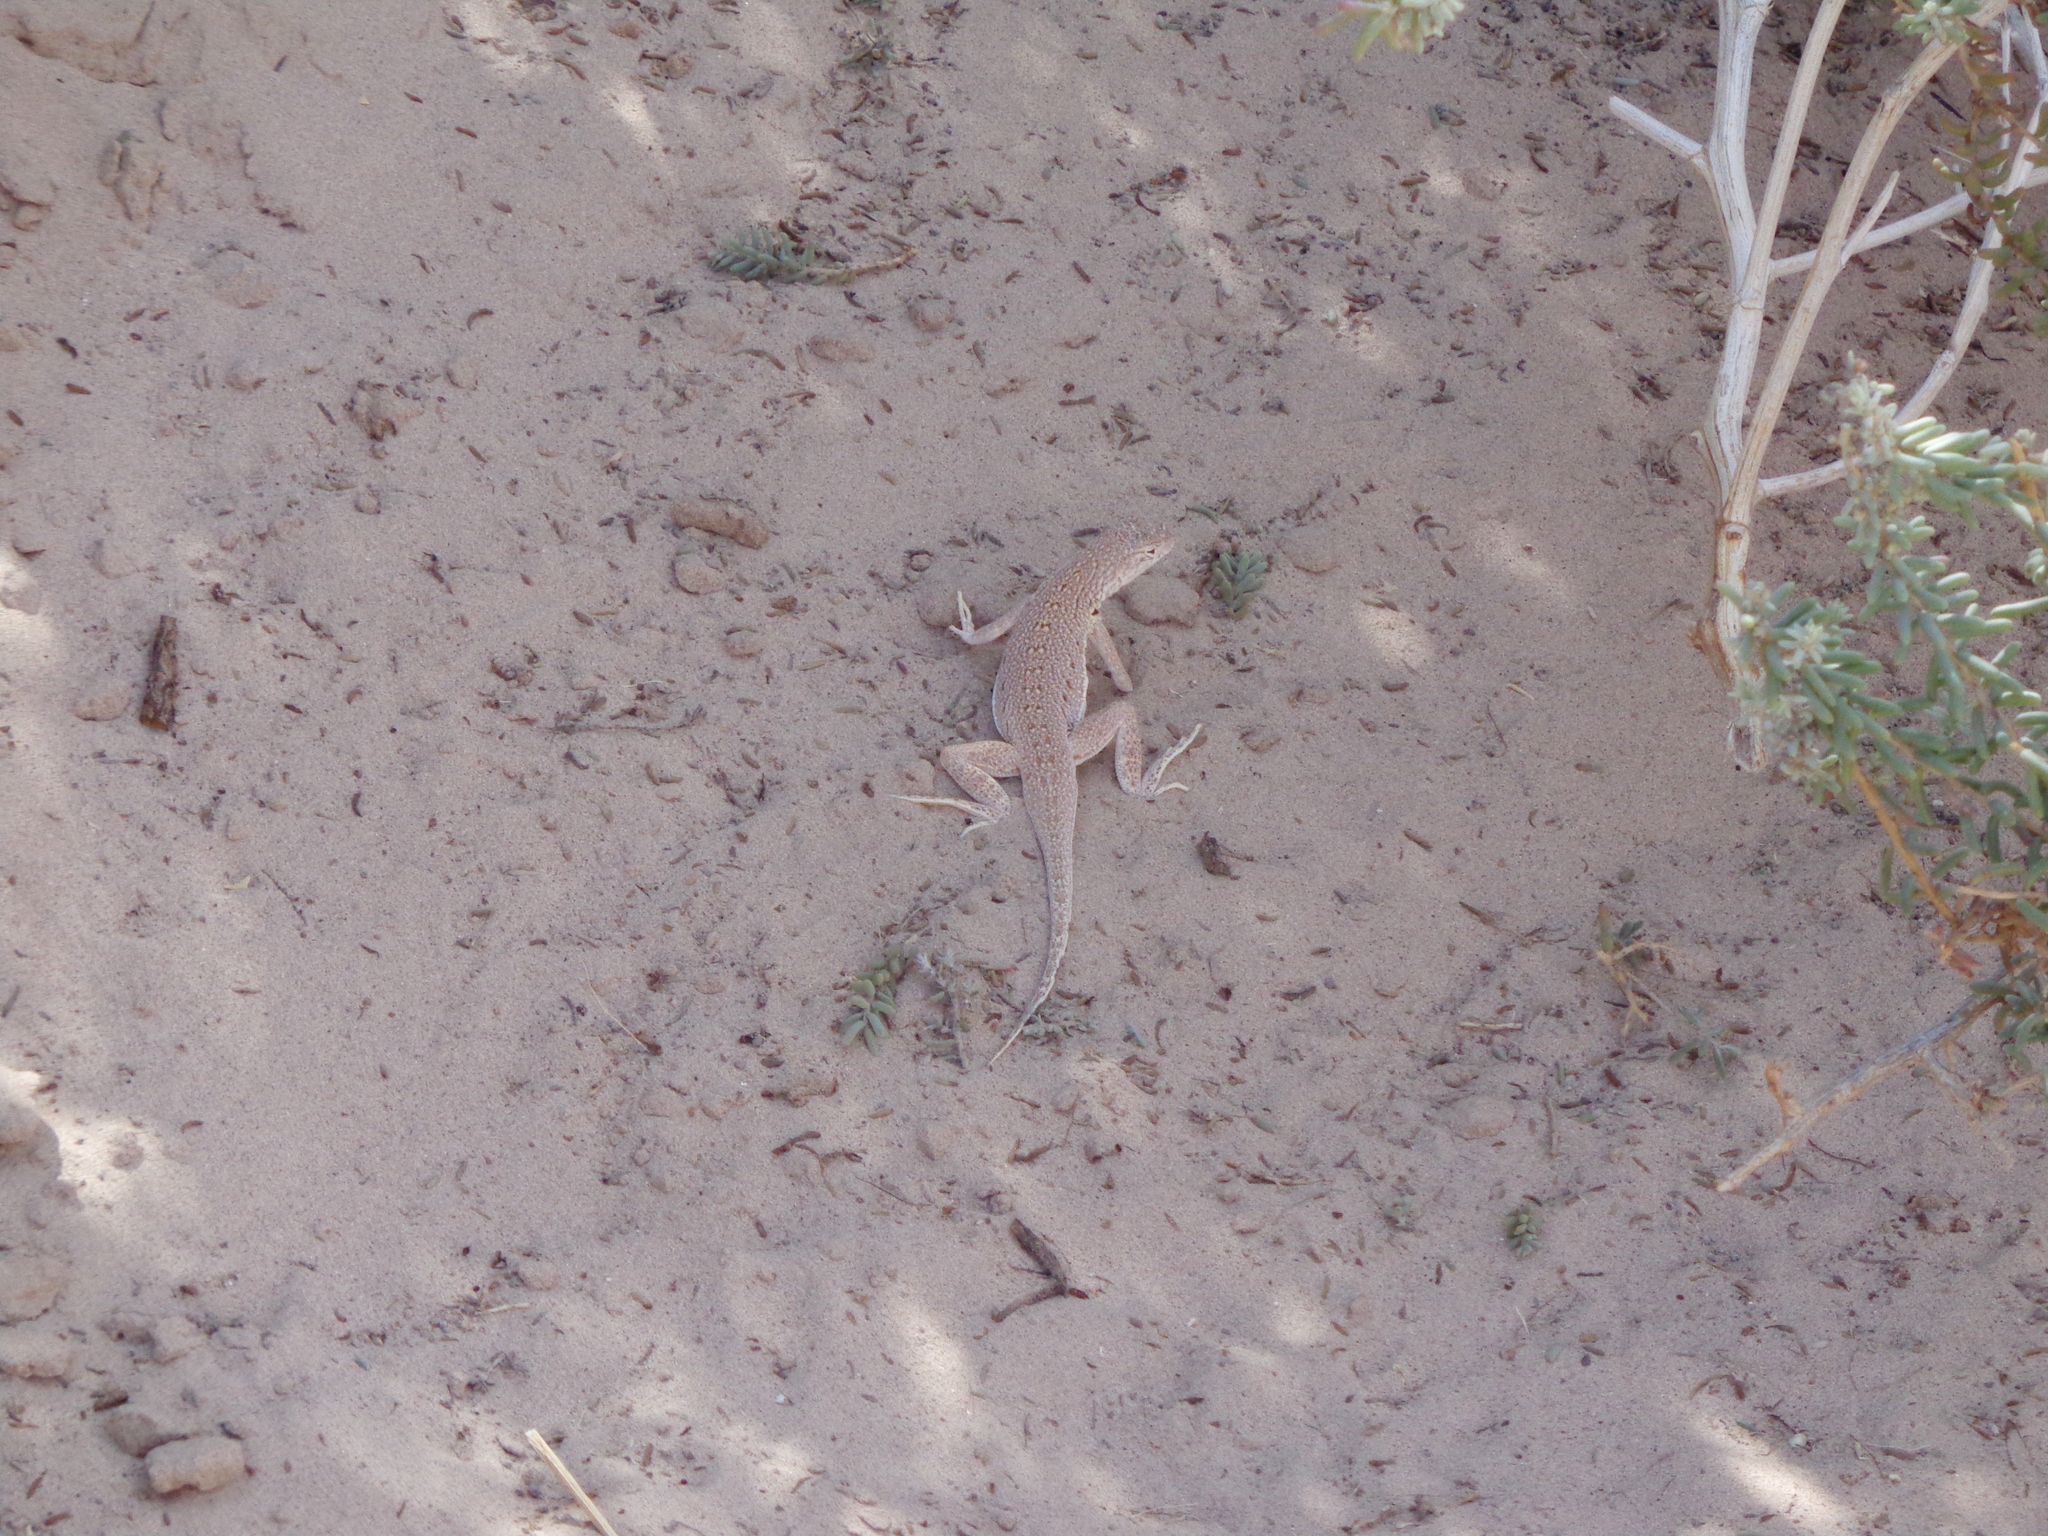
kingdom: Animalia
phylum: Chordata
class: Squamata
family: Phrynosomatidae
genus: Uma
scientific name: Uma exsul
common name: Fringe-toed sand lizard
